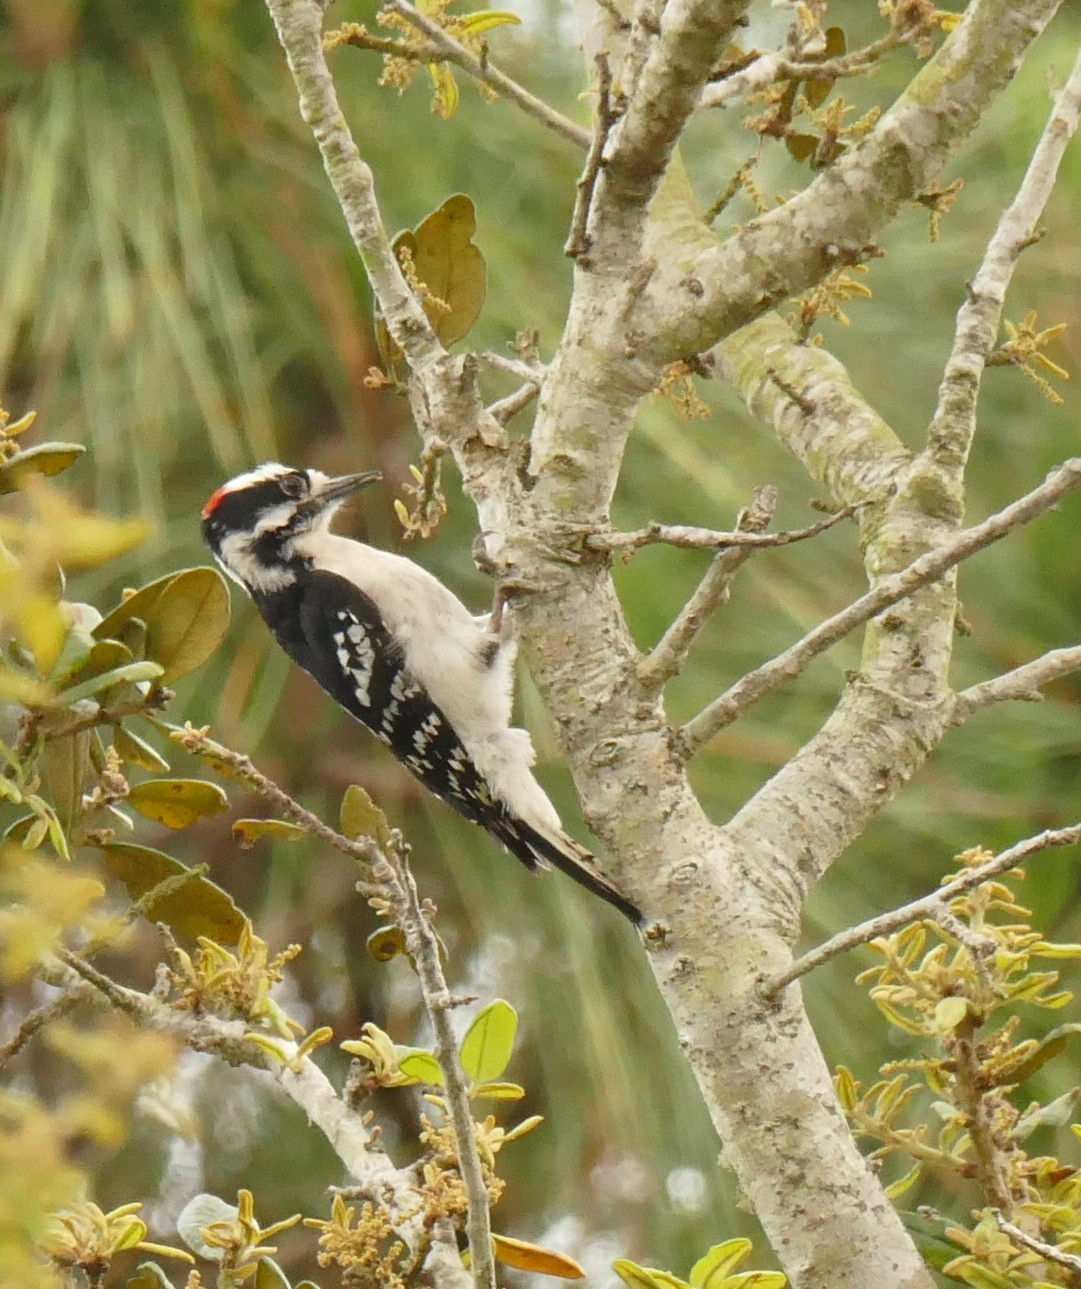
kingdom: Animalia
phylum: Chordata
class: Aves
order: Piciformes
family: Picidae
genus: Dryobates
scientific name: Dryobates pubescens
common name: Downy woodpecker
